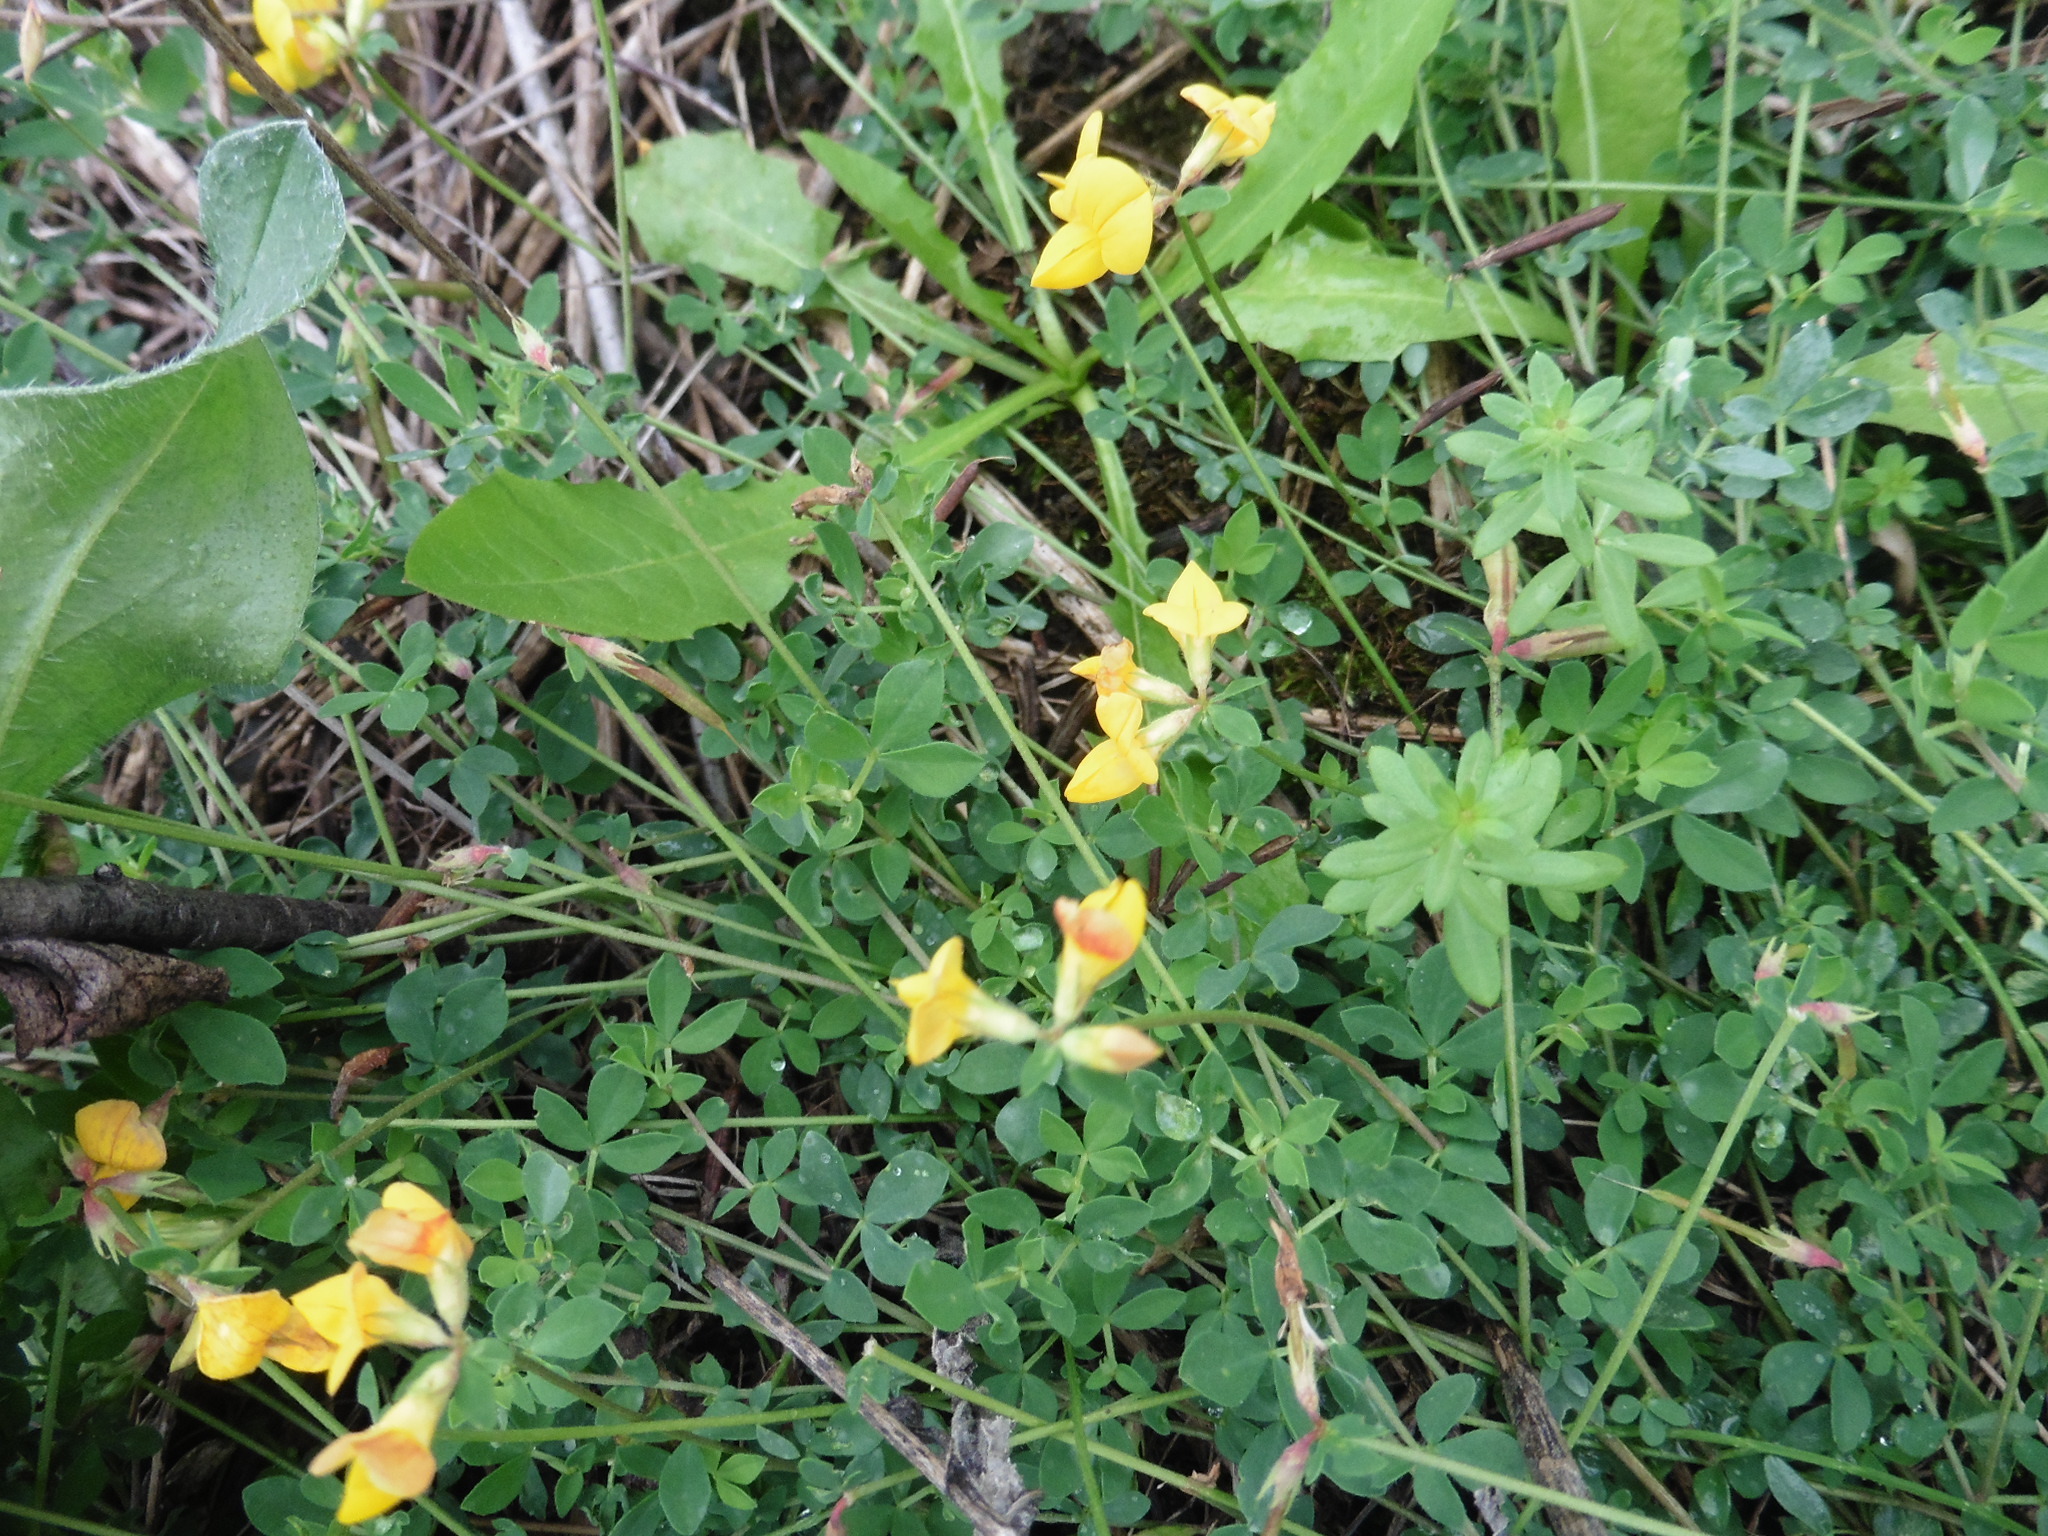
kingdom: Plantae
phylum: Tracheophyta
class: Magnoliopsida
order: Fabales
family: Fabaceae
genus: Lotus
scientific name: Lotus corniculatus
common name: Common bird's-foot-trefoil
